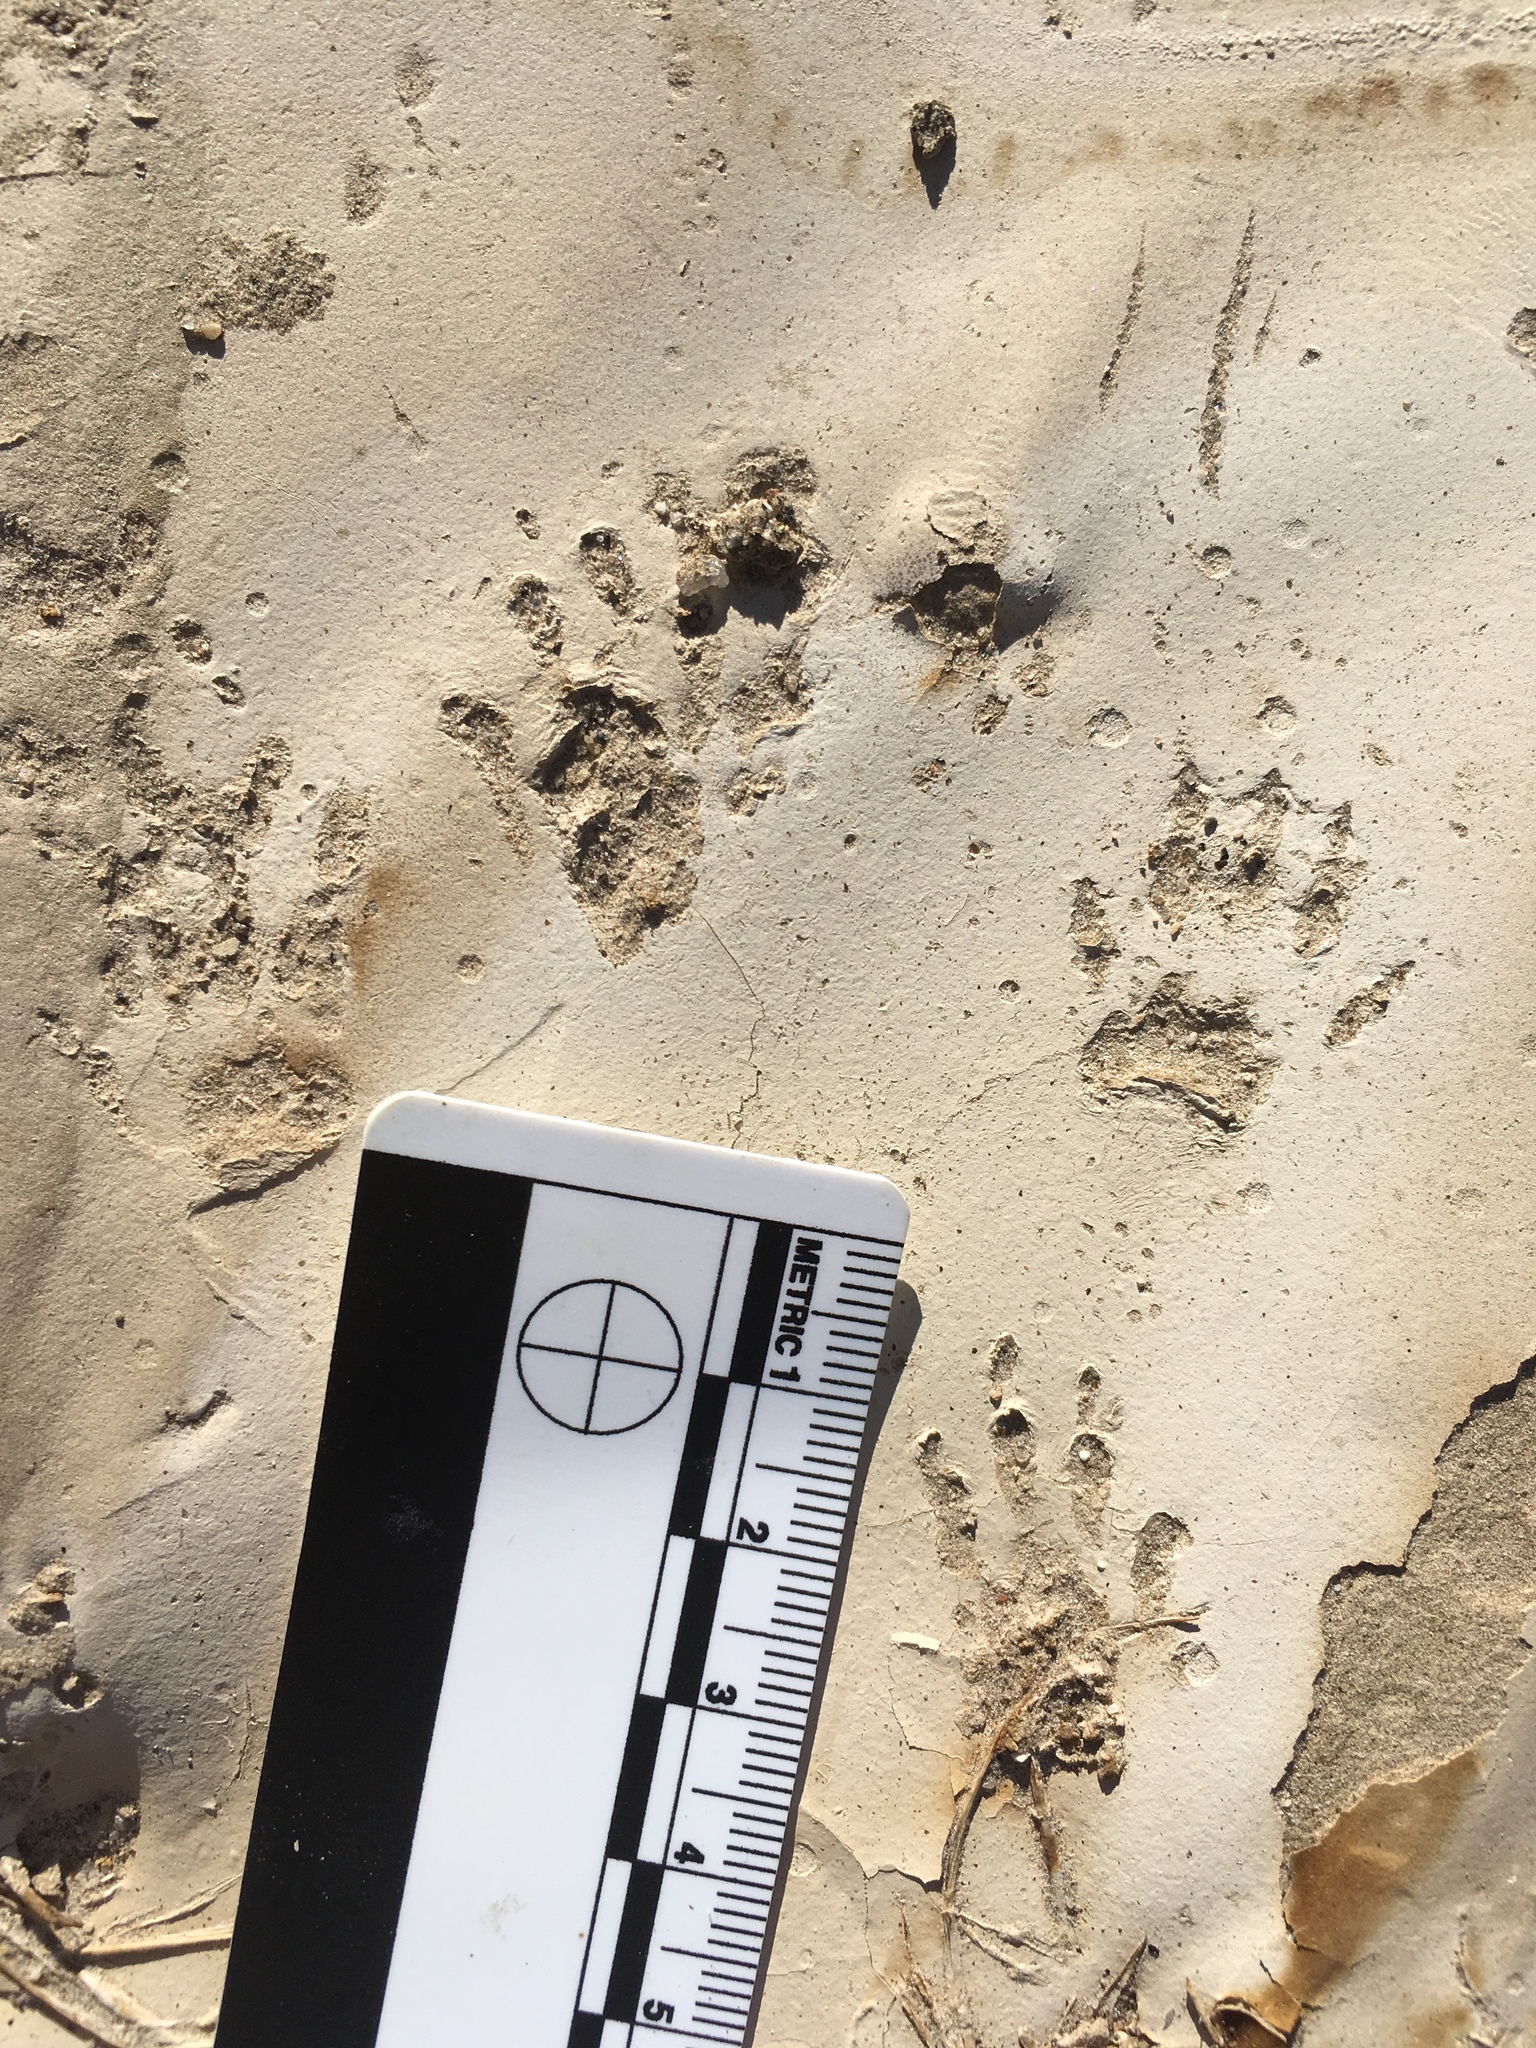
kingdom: Animalia
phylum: Chordata
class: Mammalia
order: Rodentia
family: Sciuridae
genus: Otospermophilus
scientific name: Otospermophilus beecheyi
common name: California ground squirrel
